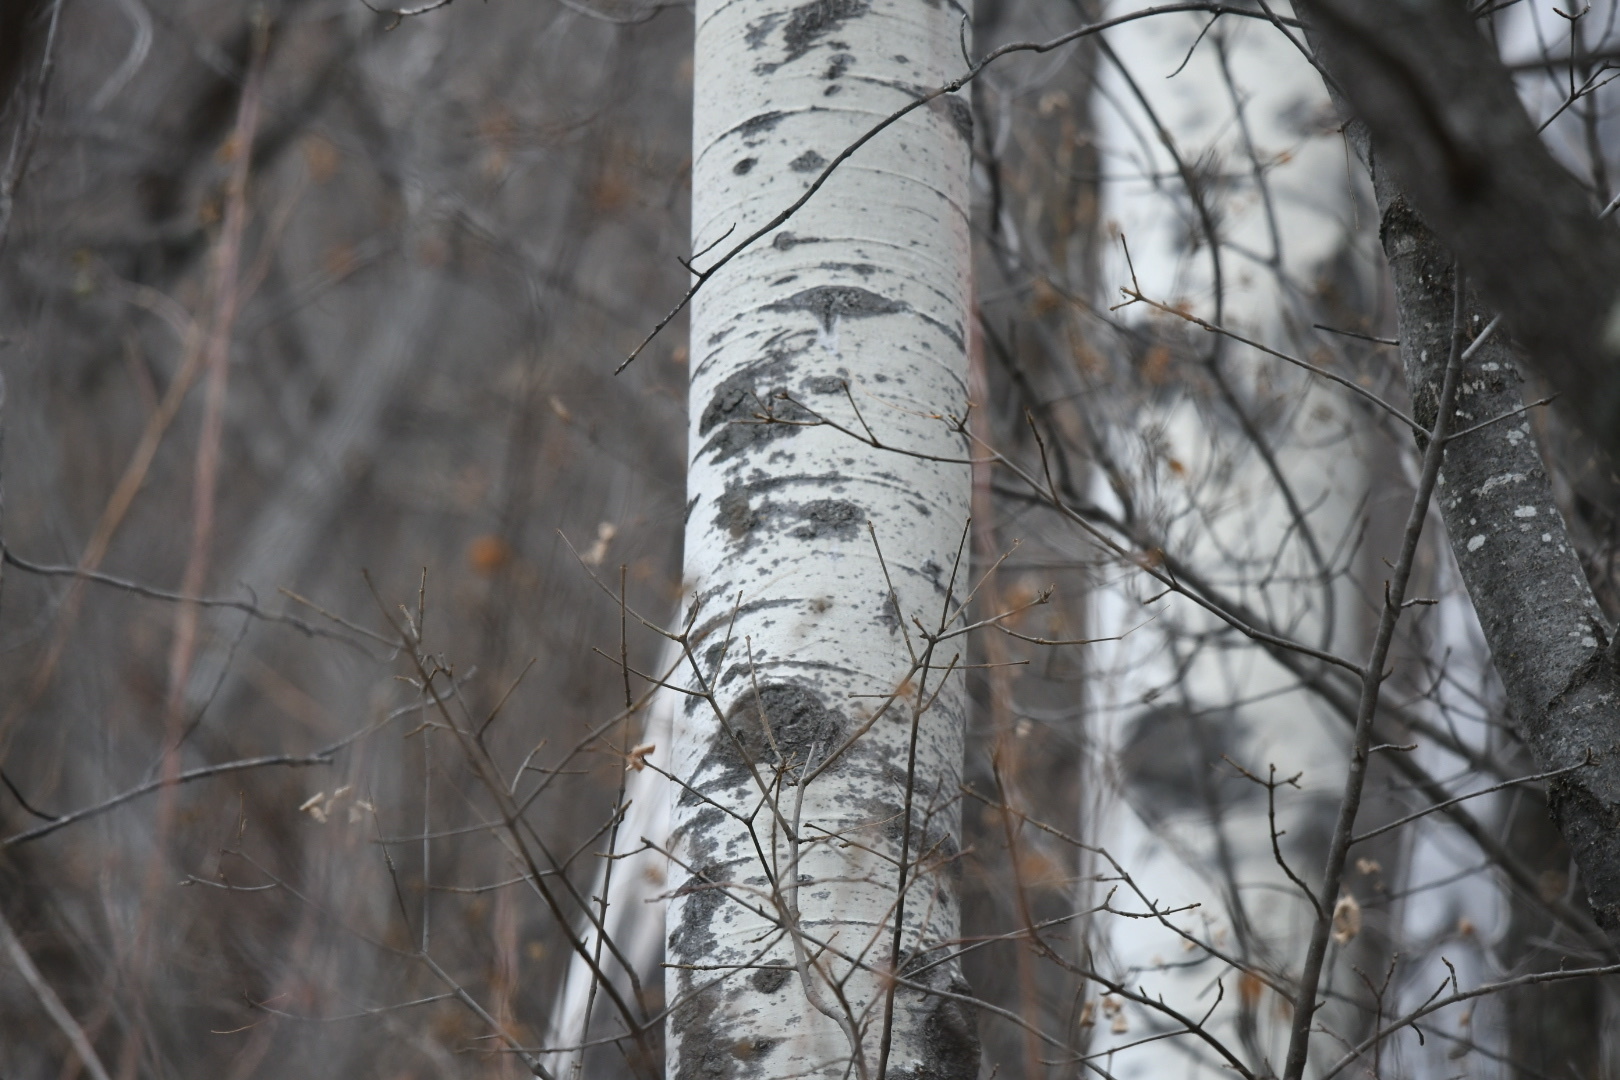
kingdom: Plantae
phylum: Tracheophyta
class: Magnoliopsida
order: Malpighiales
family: Salicaceae
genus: Populus
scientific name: Populus tremuloides
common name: Quaking aspen
